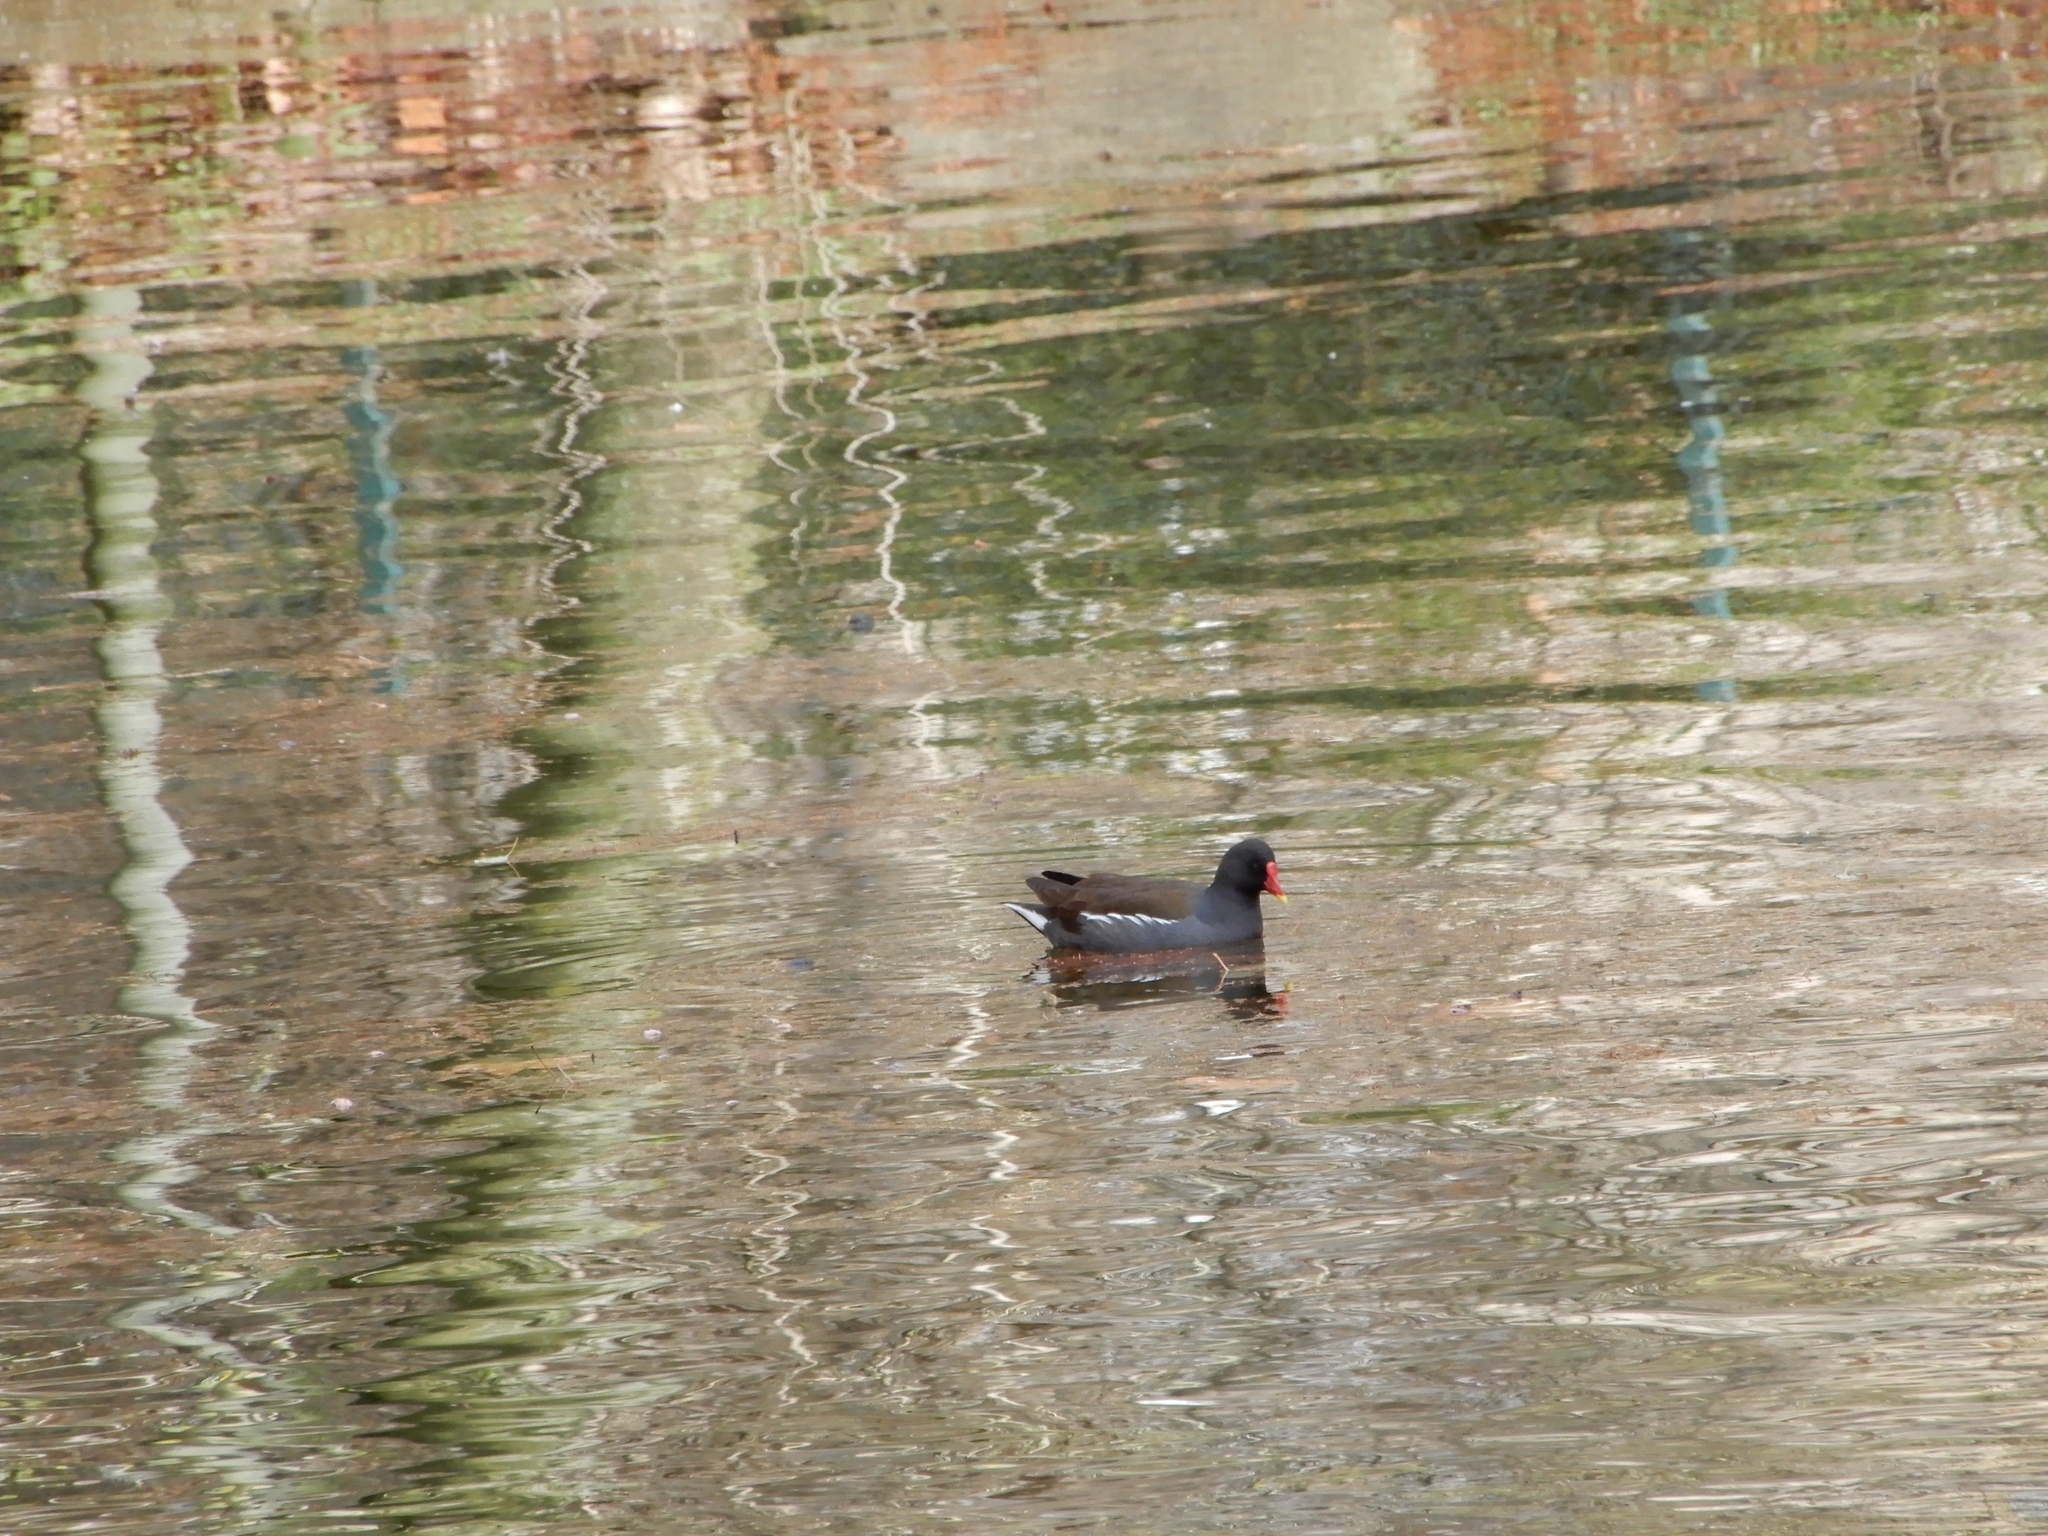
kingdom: Animalia
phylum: Chordata
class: Aves
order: Gruiformes
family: Rallidae
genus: Gallinula
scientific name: Gallinula chloropus
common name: Common moorhen
